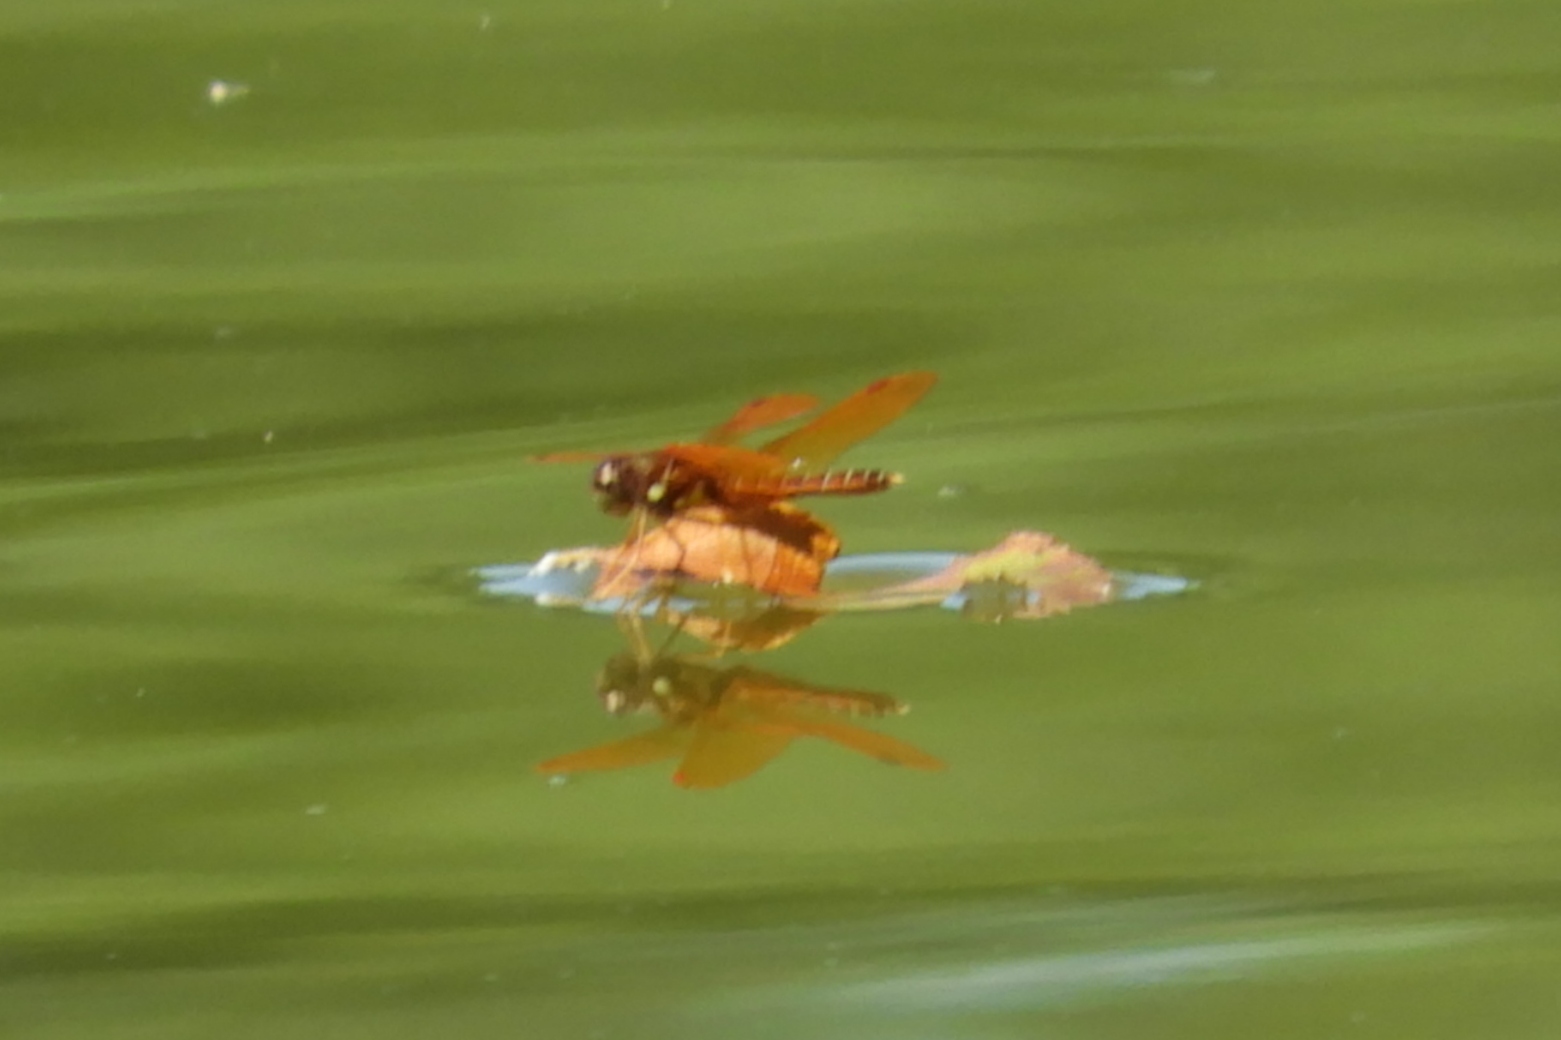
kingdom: Animalia
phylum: Arthropoda
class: Insecta
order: Odonata
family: Libellulidae
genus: Perithemis
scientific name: Perithemis tenera
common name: Eastern amberwing
